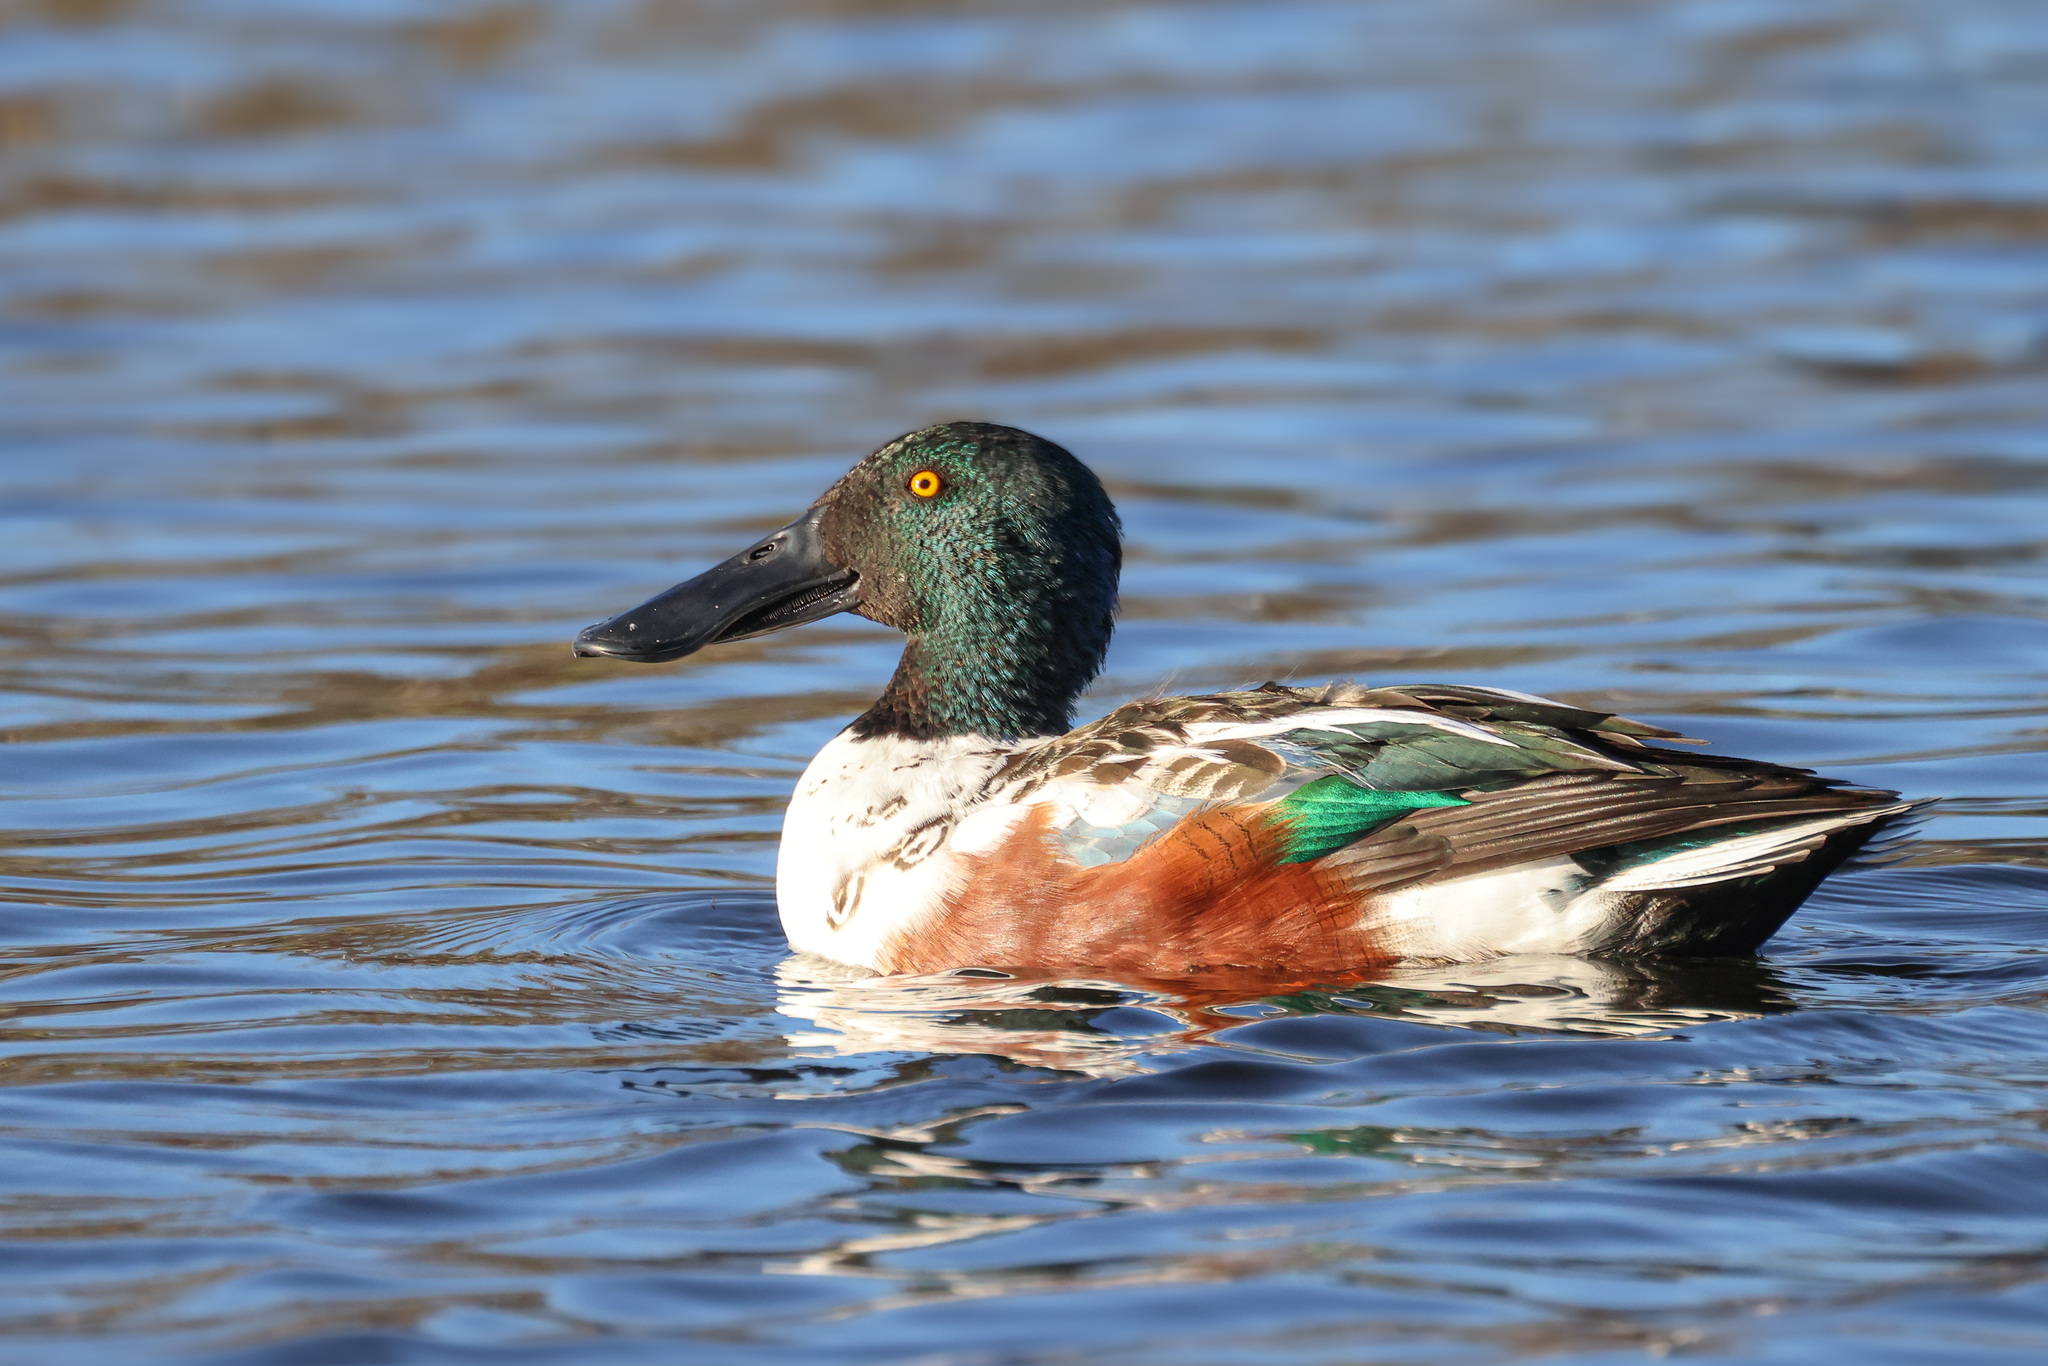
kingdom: Animalia
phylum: Chordata
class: Aves
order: Anseriformes
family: Anatidae
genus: Spatula
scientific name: Spatula clypeata
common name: Northern shoveler
